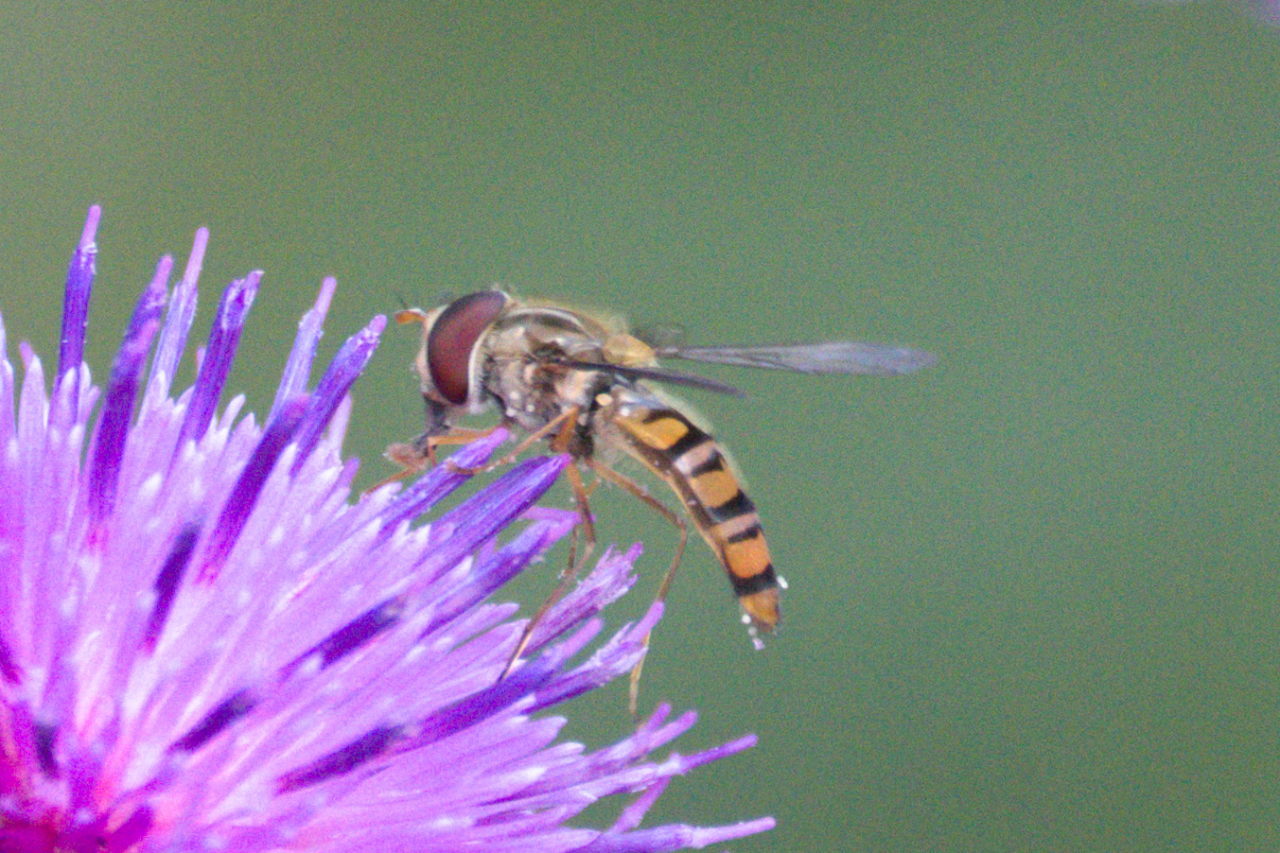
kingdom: Animalia
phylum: Arthropoda
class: Insecta
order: Diptera
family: Syrphidae
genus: Episyrphus
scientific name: Episyrphus balteatus
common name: Marmalade hoverfly
